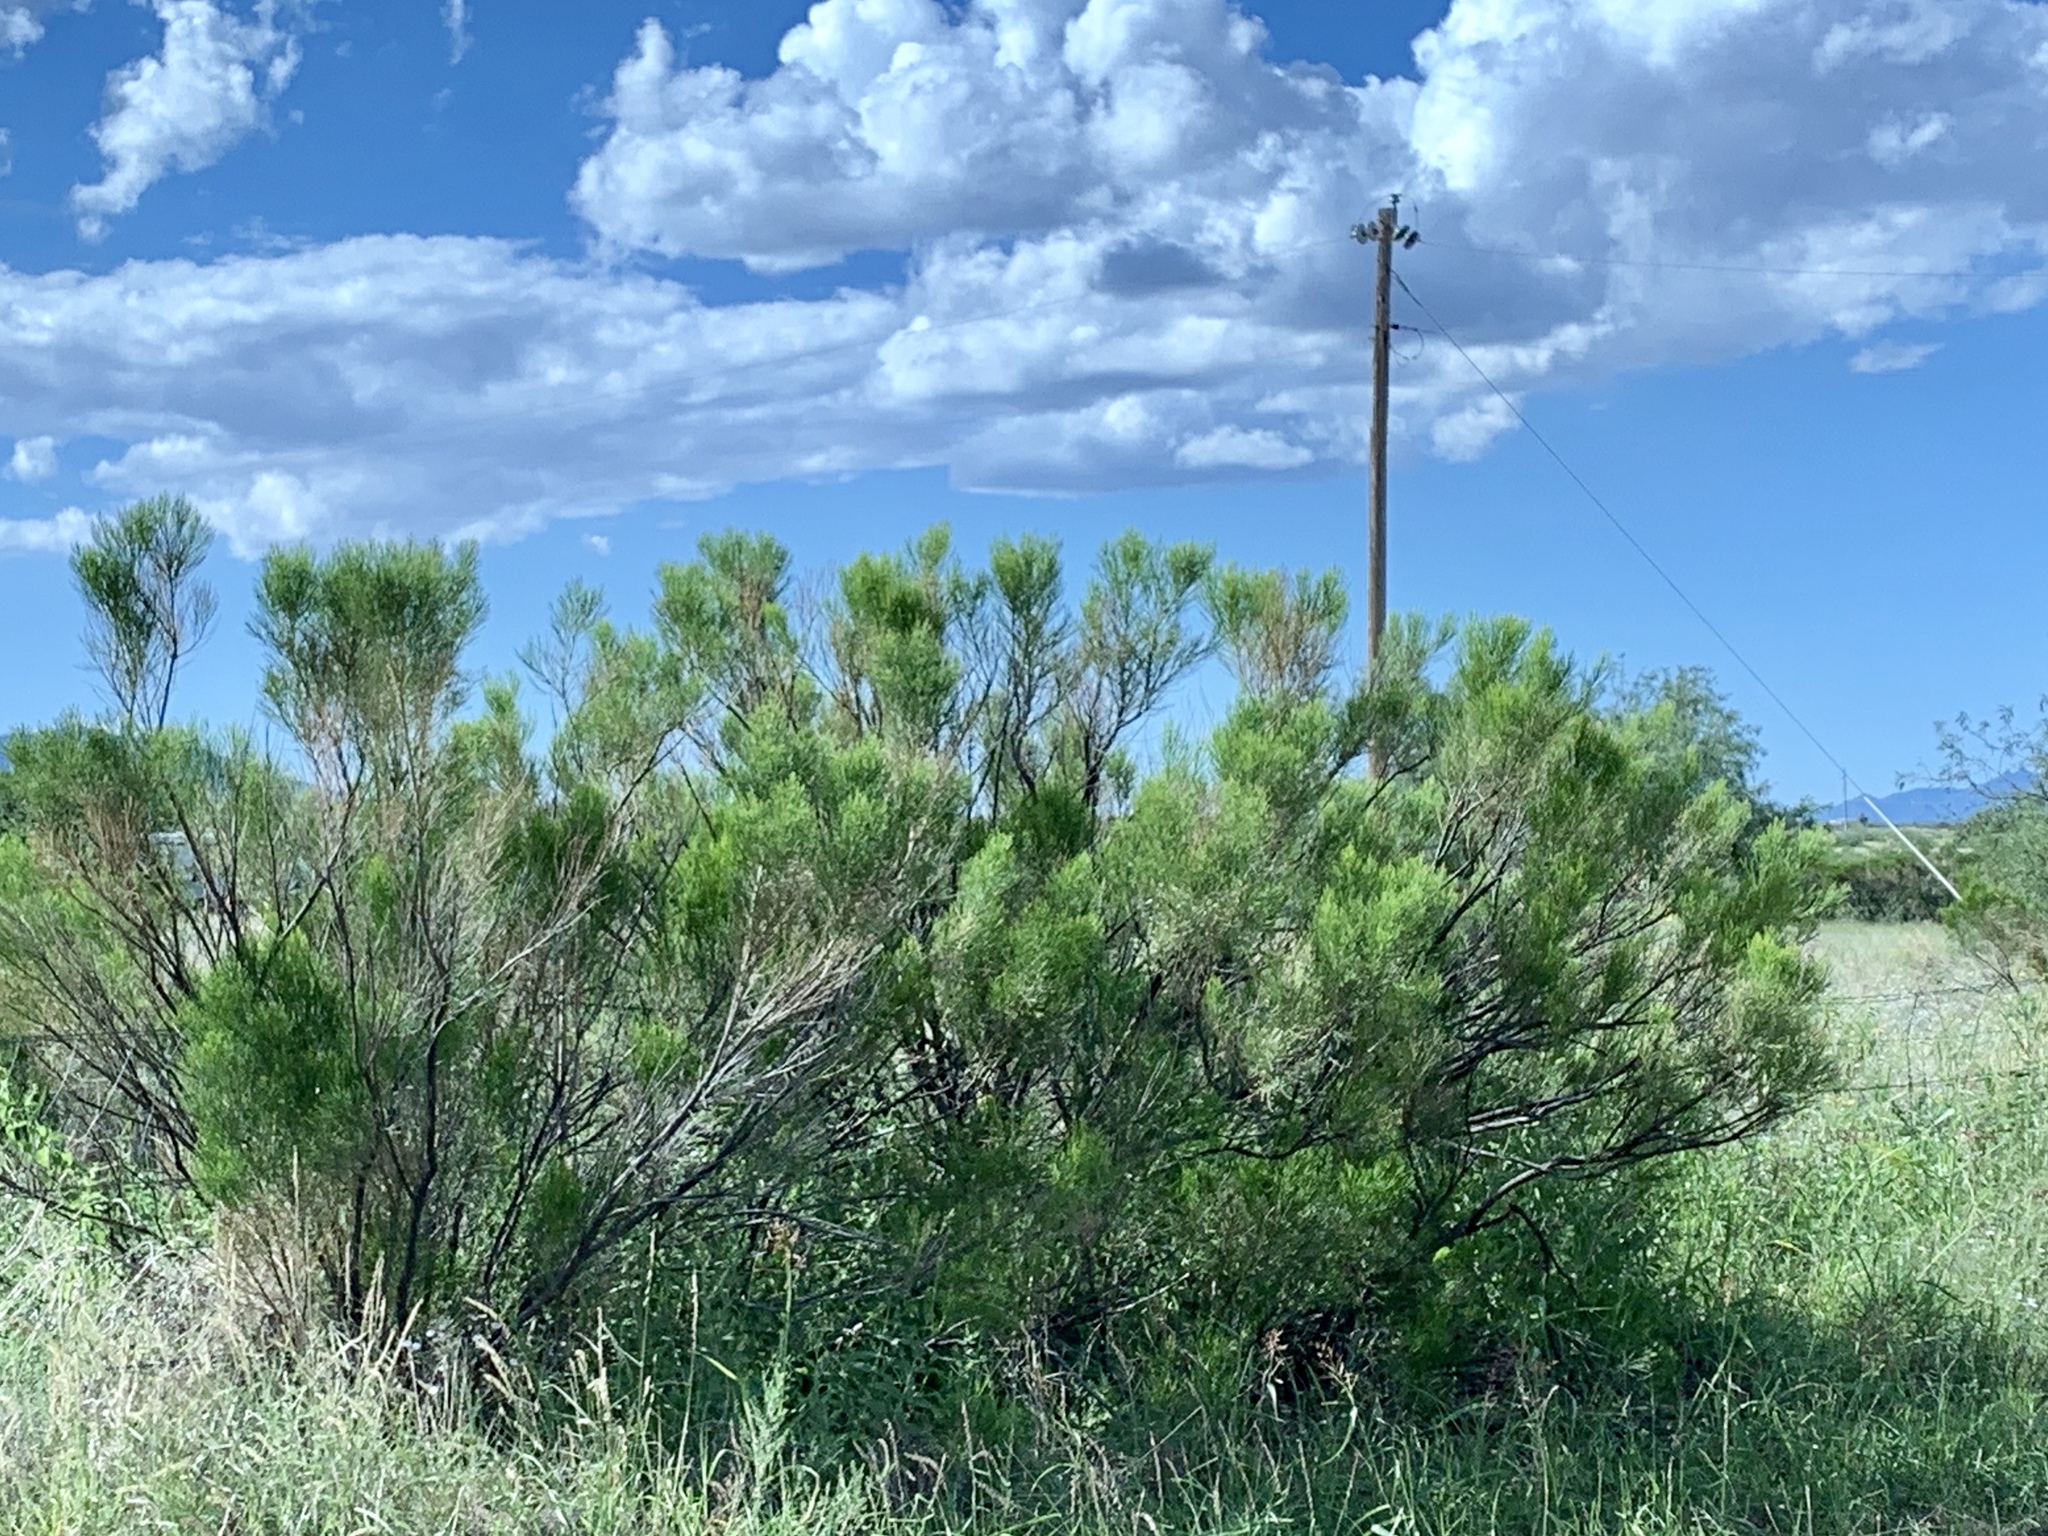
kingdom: Plantae
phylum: Tracheophyta
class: Magnoliopsida
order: Asterales
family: Asteraceae
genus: Baccharis
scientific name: Baccharis sarothroides
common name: Desert-broom
